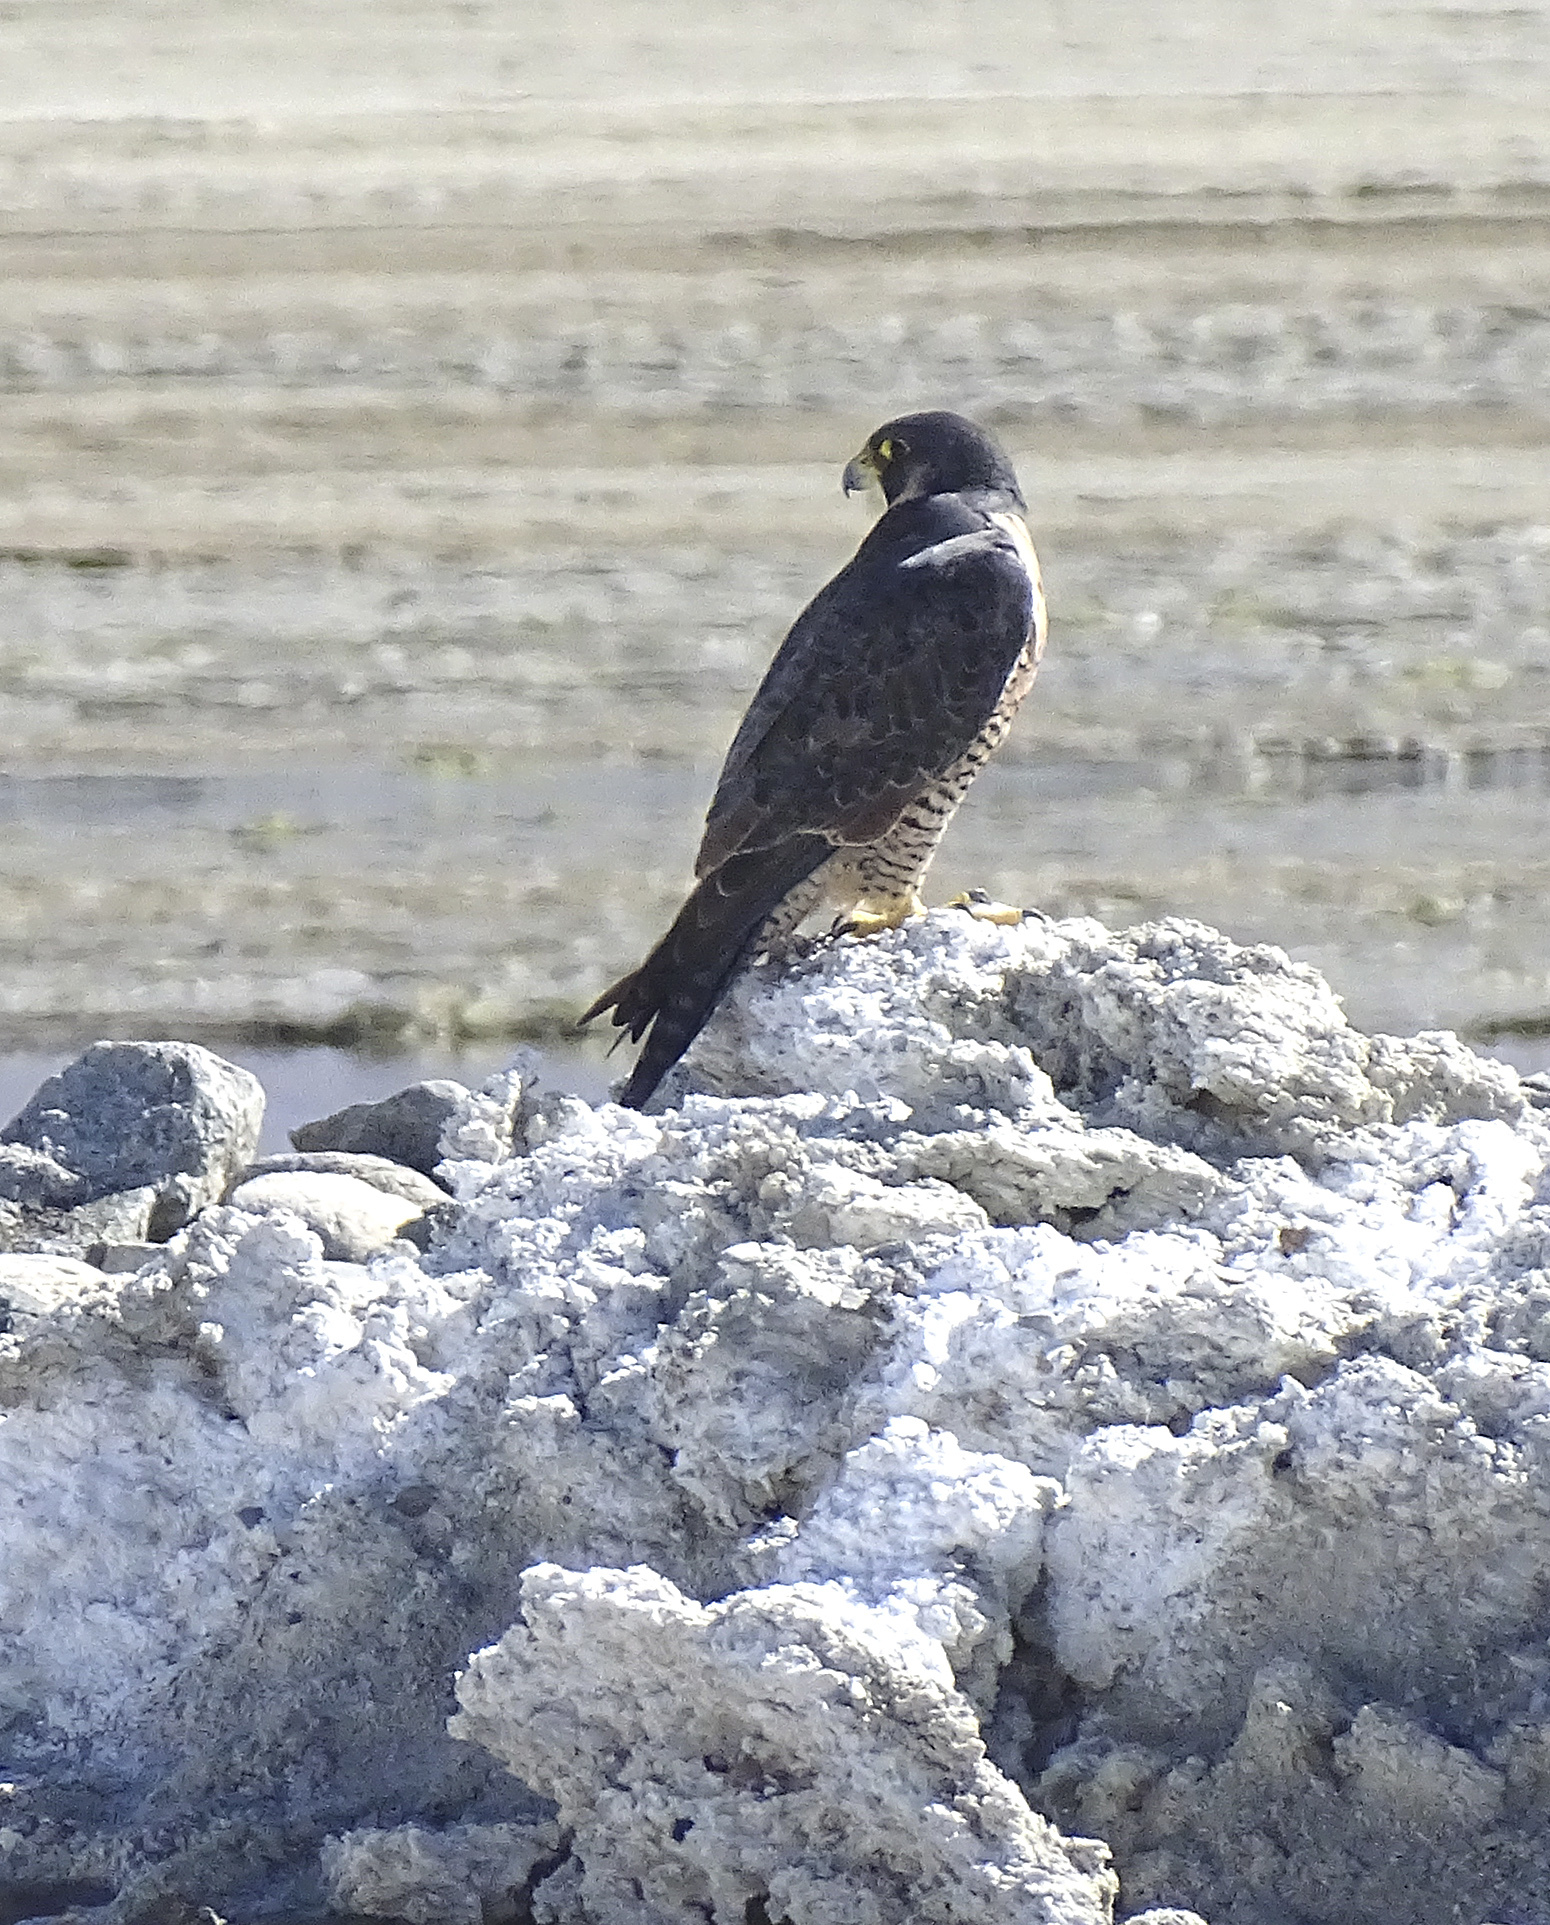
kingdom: Animalia
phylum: Chordata
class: Aves
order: Falconiformes
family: Falconidae
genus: Falco
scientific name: Falco peregrinus
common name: Peregrine falcon
